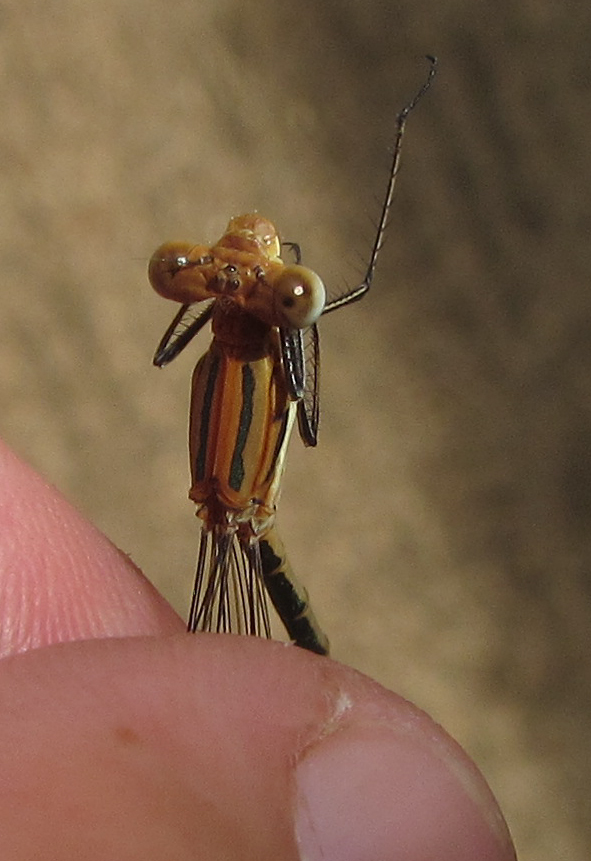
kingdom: Animalia
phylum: Arthropoda
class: Insecta
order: Odonata
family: Lestidae
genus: Lestes
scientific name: Lestes plagiatus
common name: Highland spreadwing
